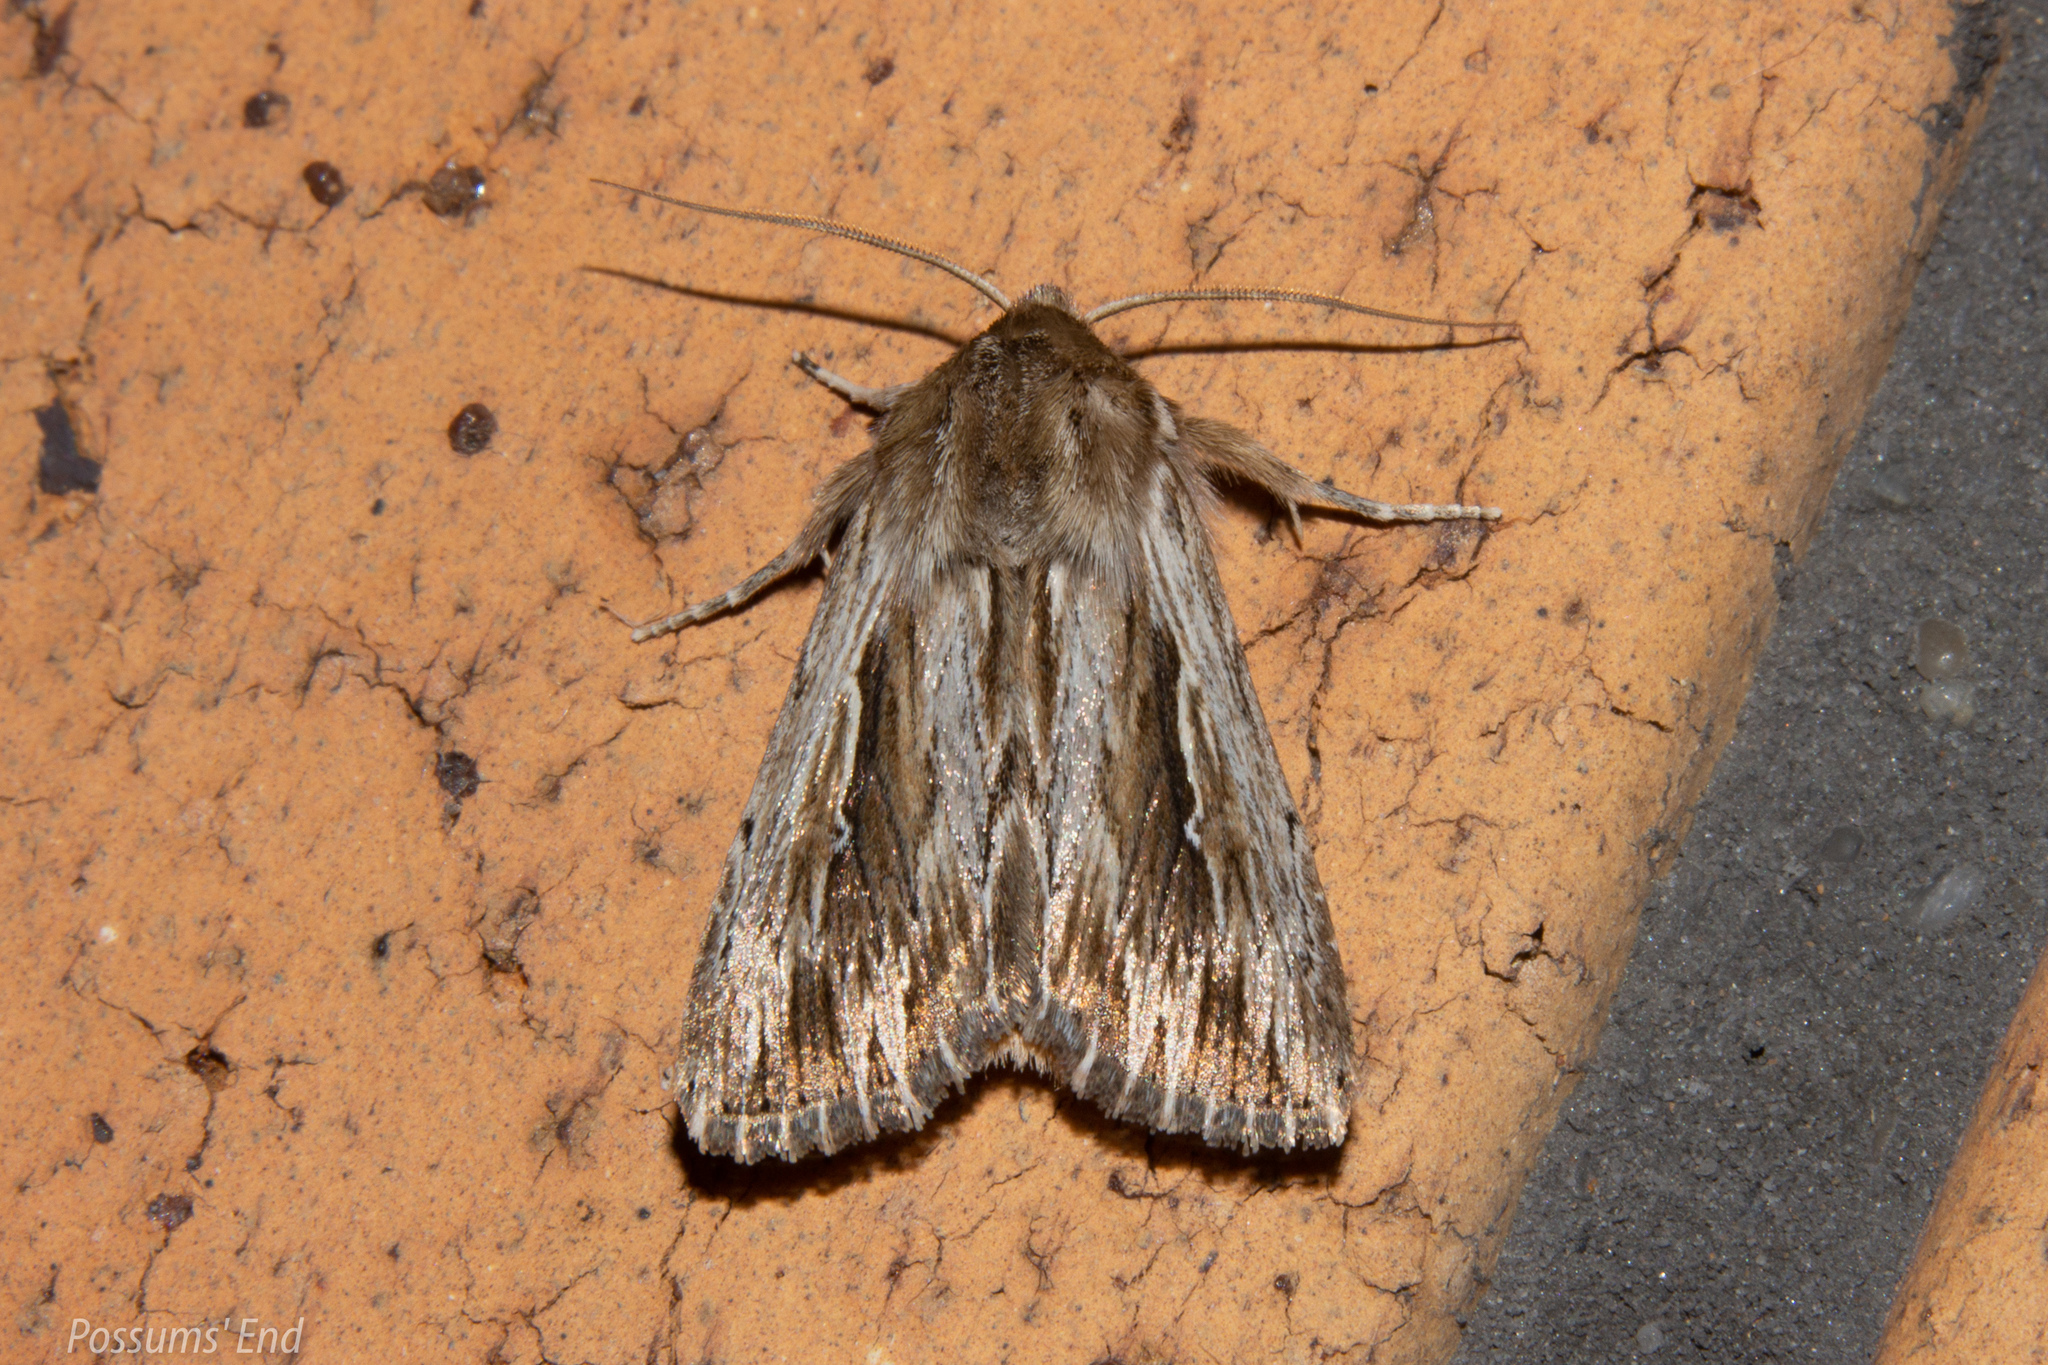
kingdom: Animalia
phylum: Arthropoda
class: Insecta
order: Lepidoptera
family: Noctuidae
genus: Persectania
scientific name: Persectania aversa
